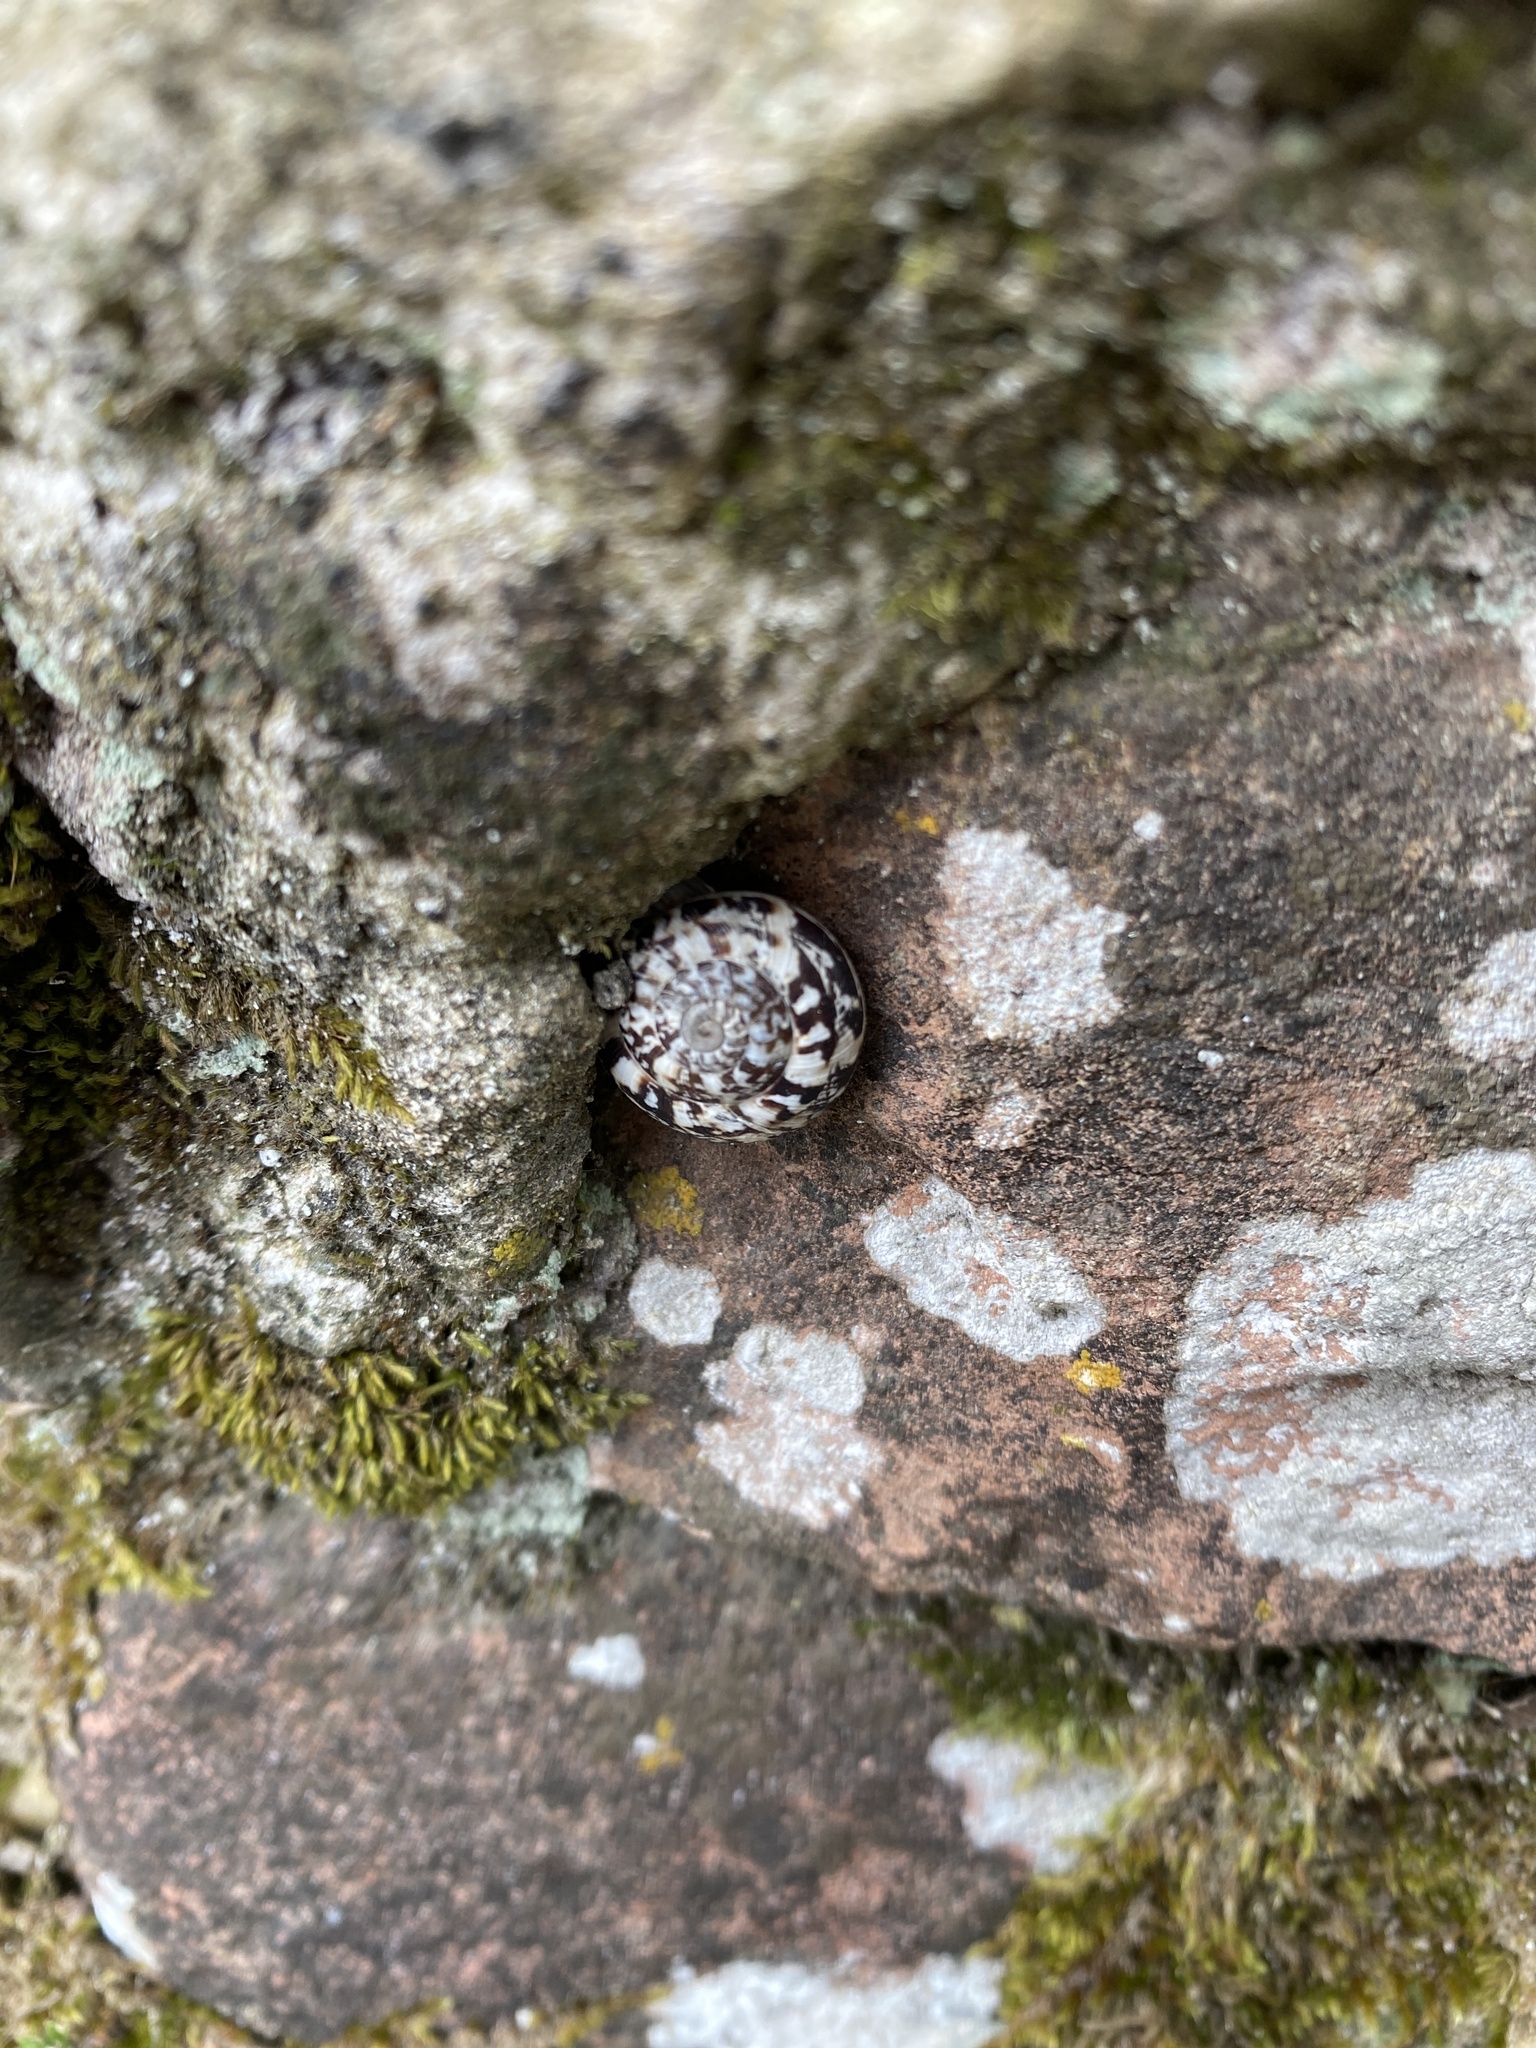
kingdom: Animalia
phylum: Mollusca
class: Gastropoda
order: Stylommatophora
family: Helicidae
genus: Marmorana
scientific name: Marmorana serpentina
